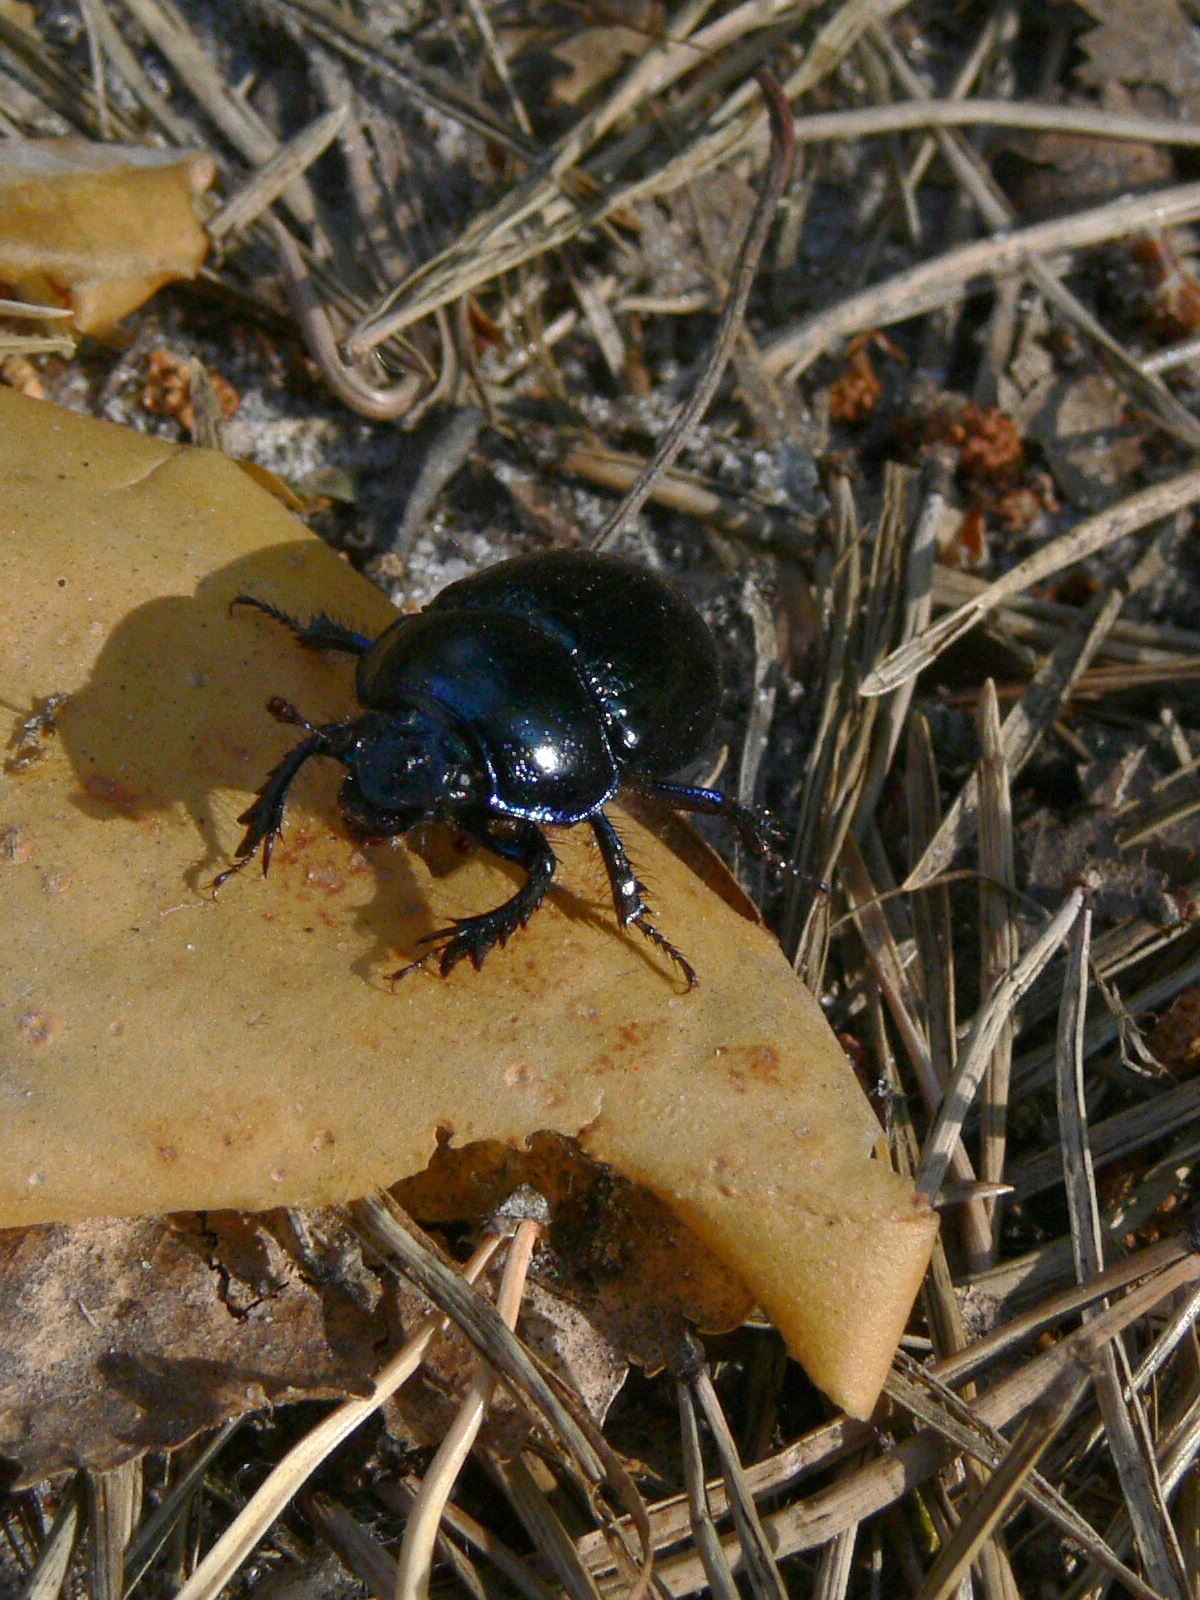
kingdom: Animalia
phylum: Arthropoda
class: Insecta
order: Coleoptera
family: Geotrupidae
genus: Anoplotrupes
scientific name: Anoplotrupes stercorosus
